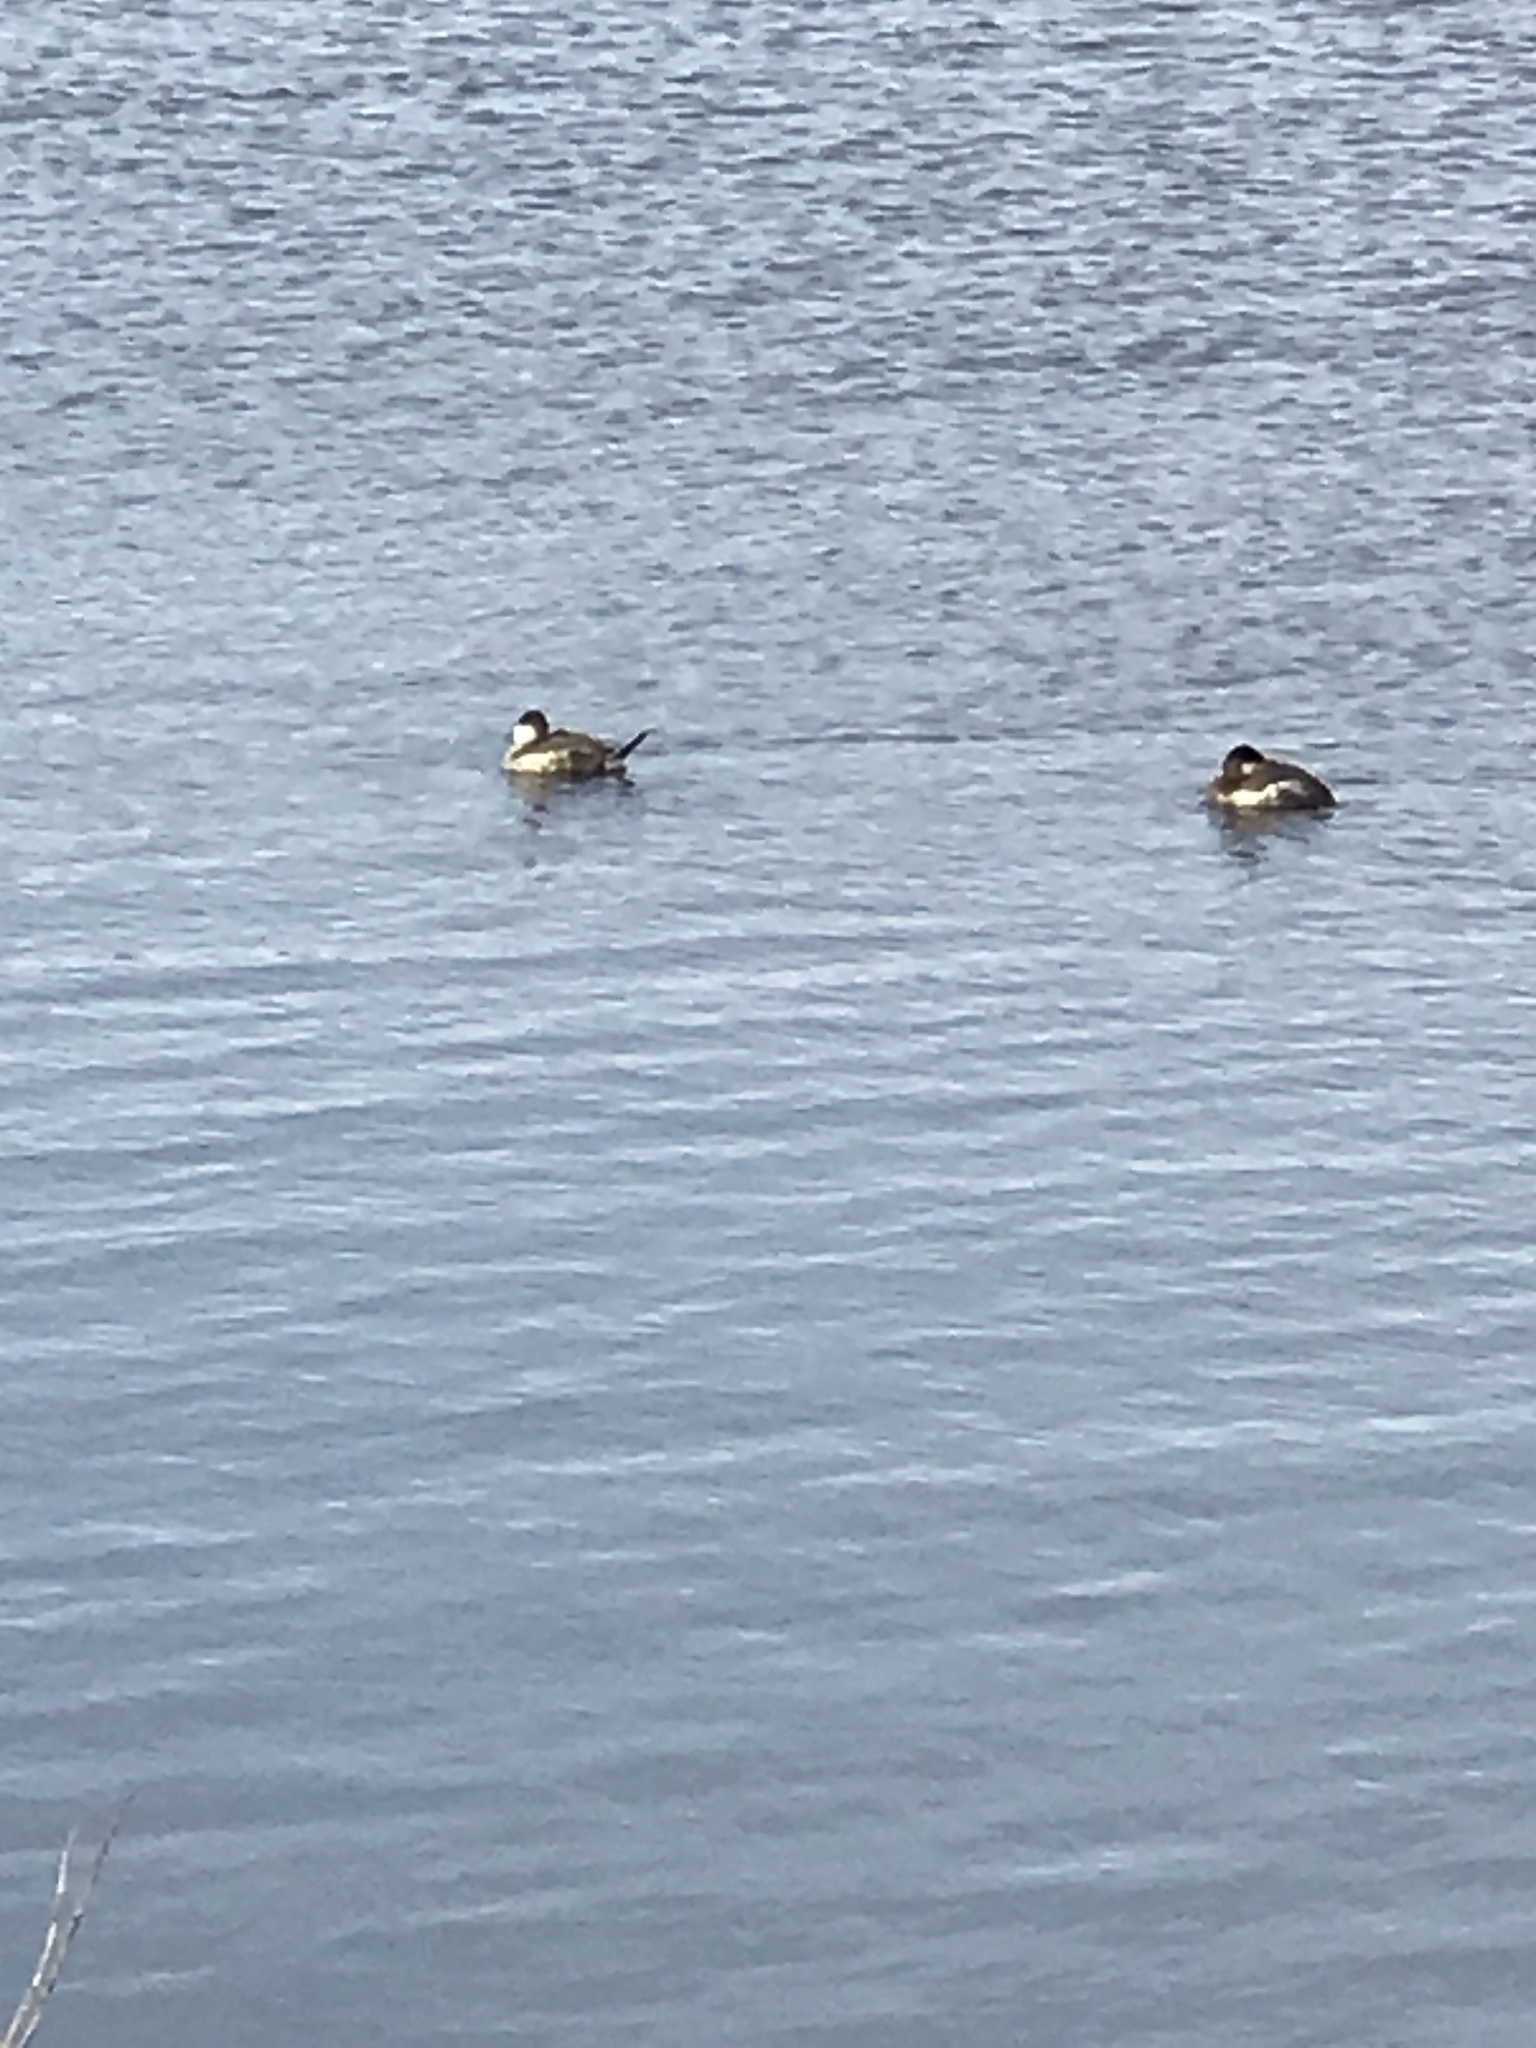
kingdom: Animalia
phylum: Chordata
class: Aves
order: Anseriformes
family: Anatidae
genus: Oxyura
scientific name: Oxyura jamaicensis
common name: Ruddy duck
